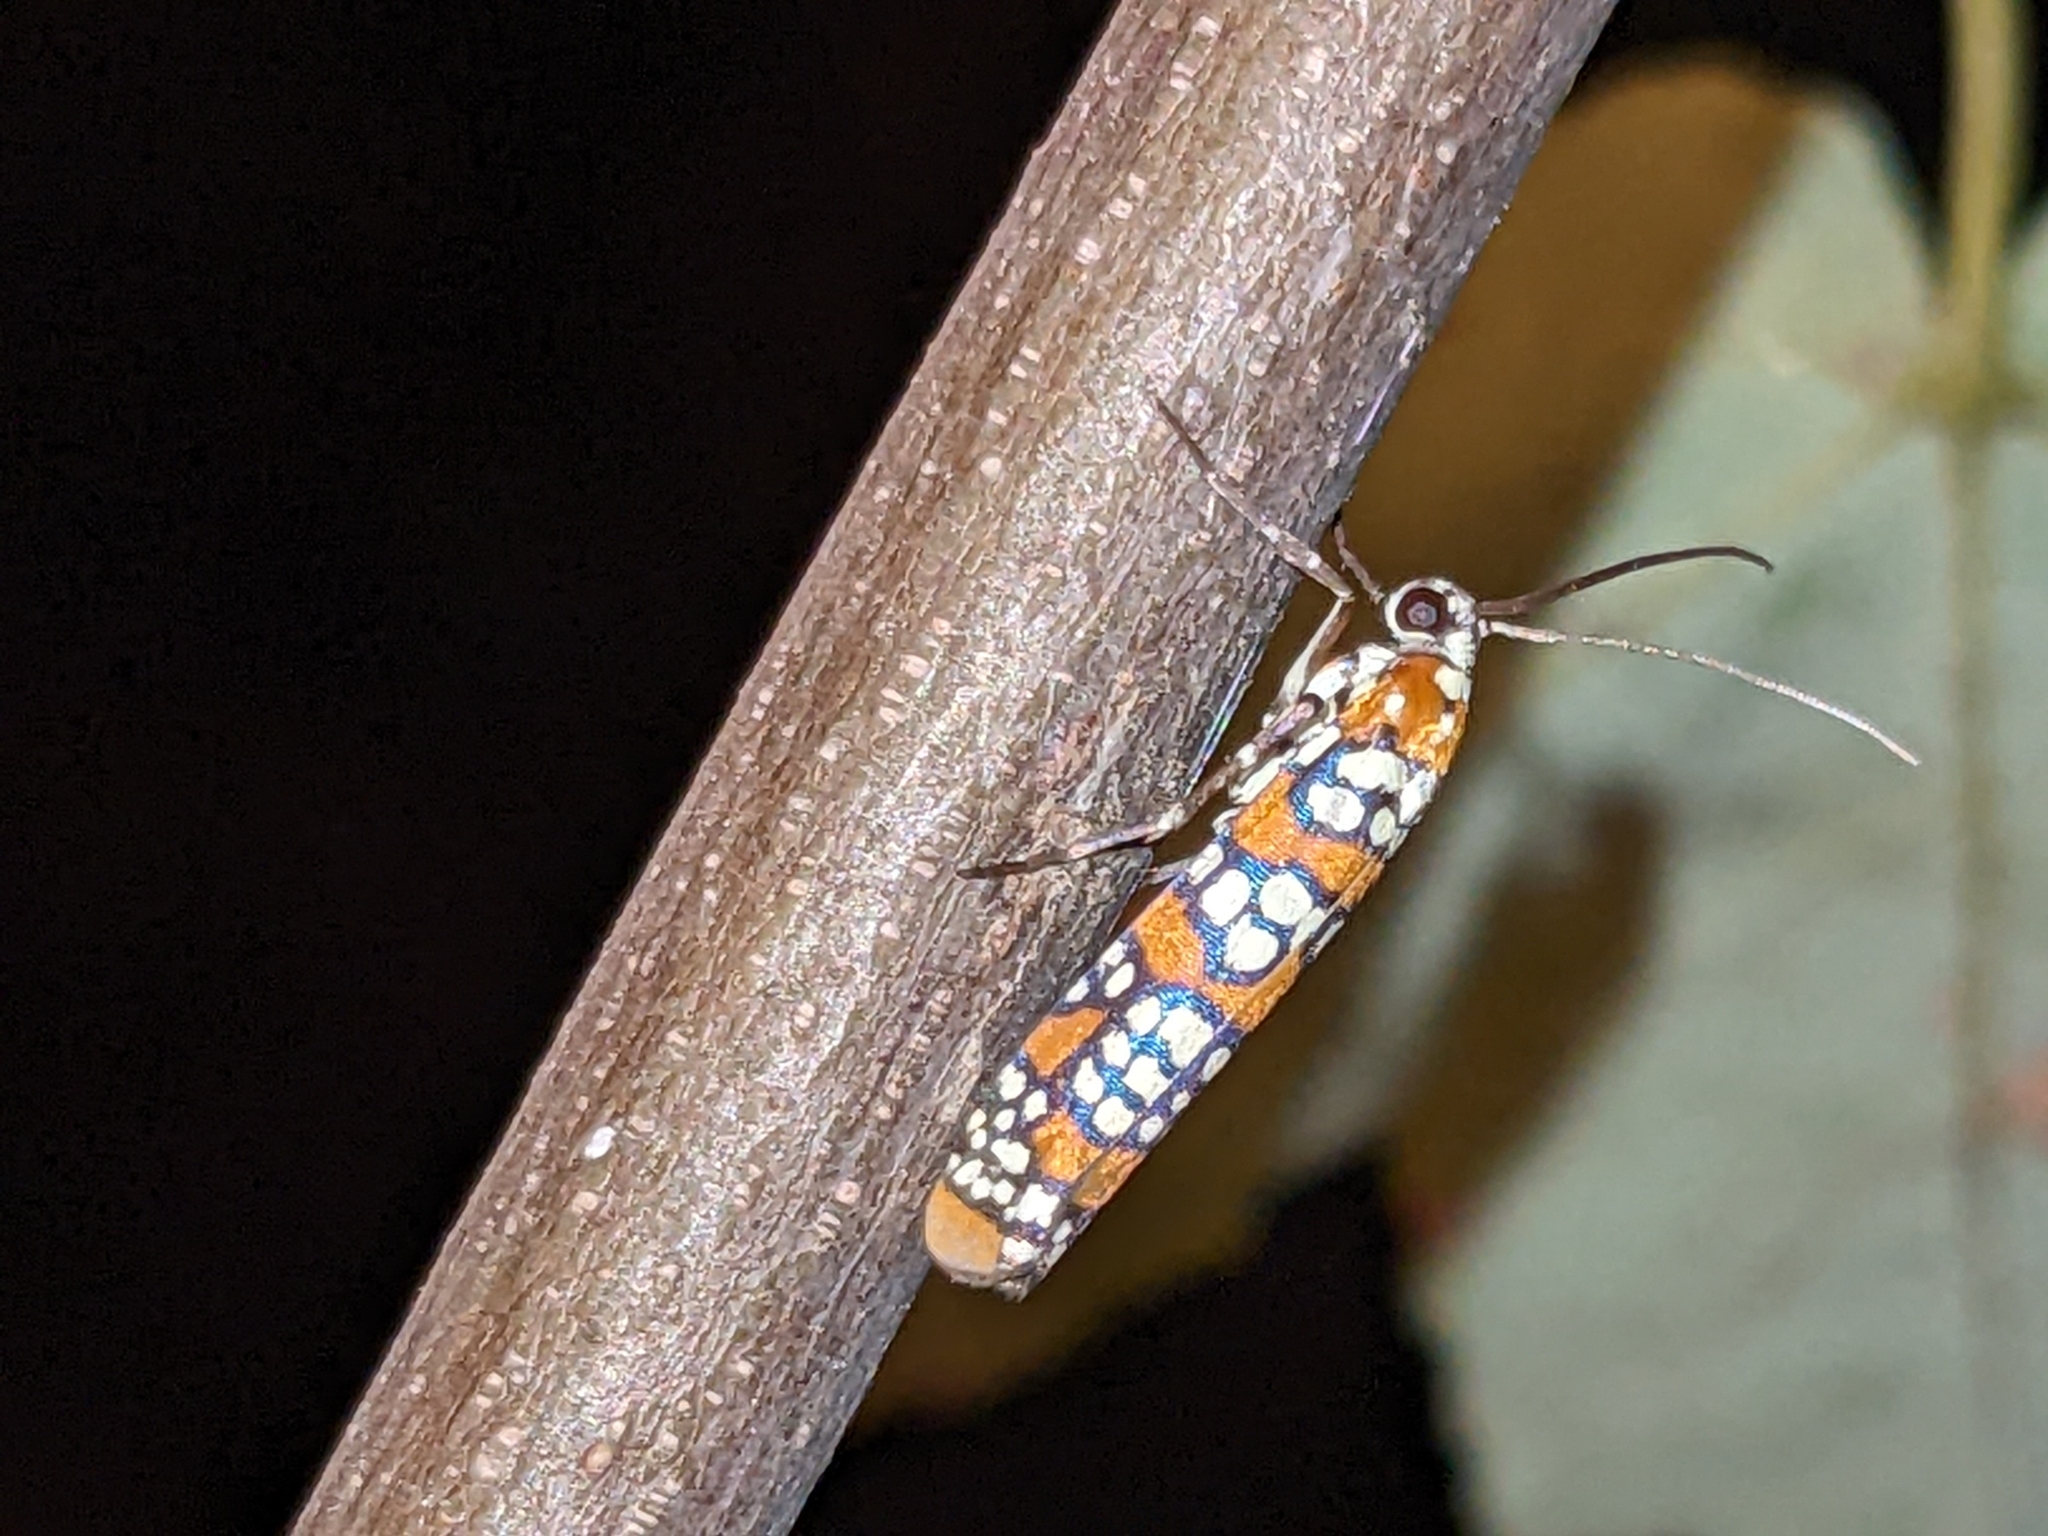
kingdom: Animalia
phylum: Arthropoda
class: Insecta
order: Lepidoptera
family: Attevidae
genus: Atteva
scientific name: Atteva punctella
